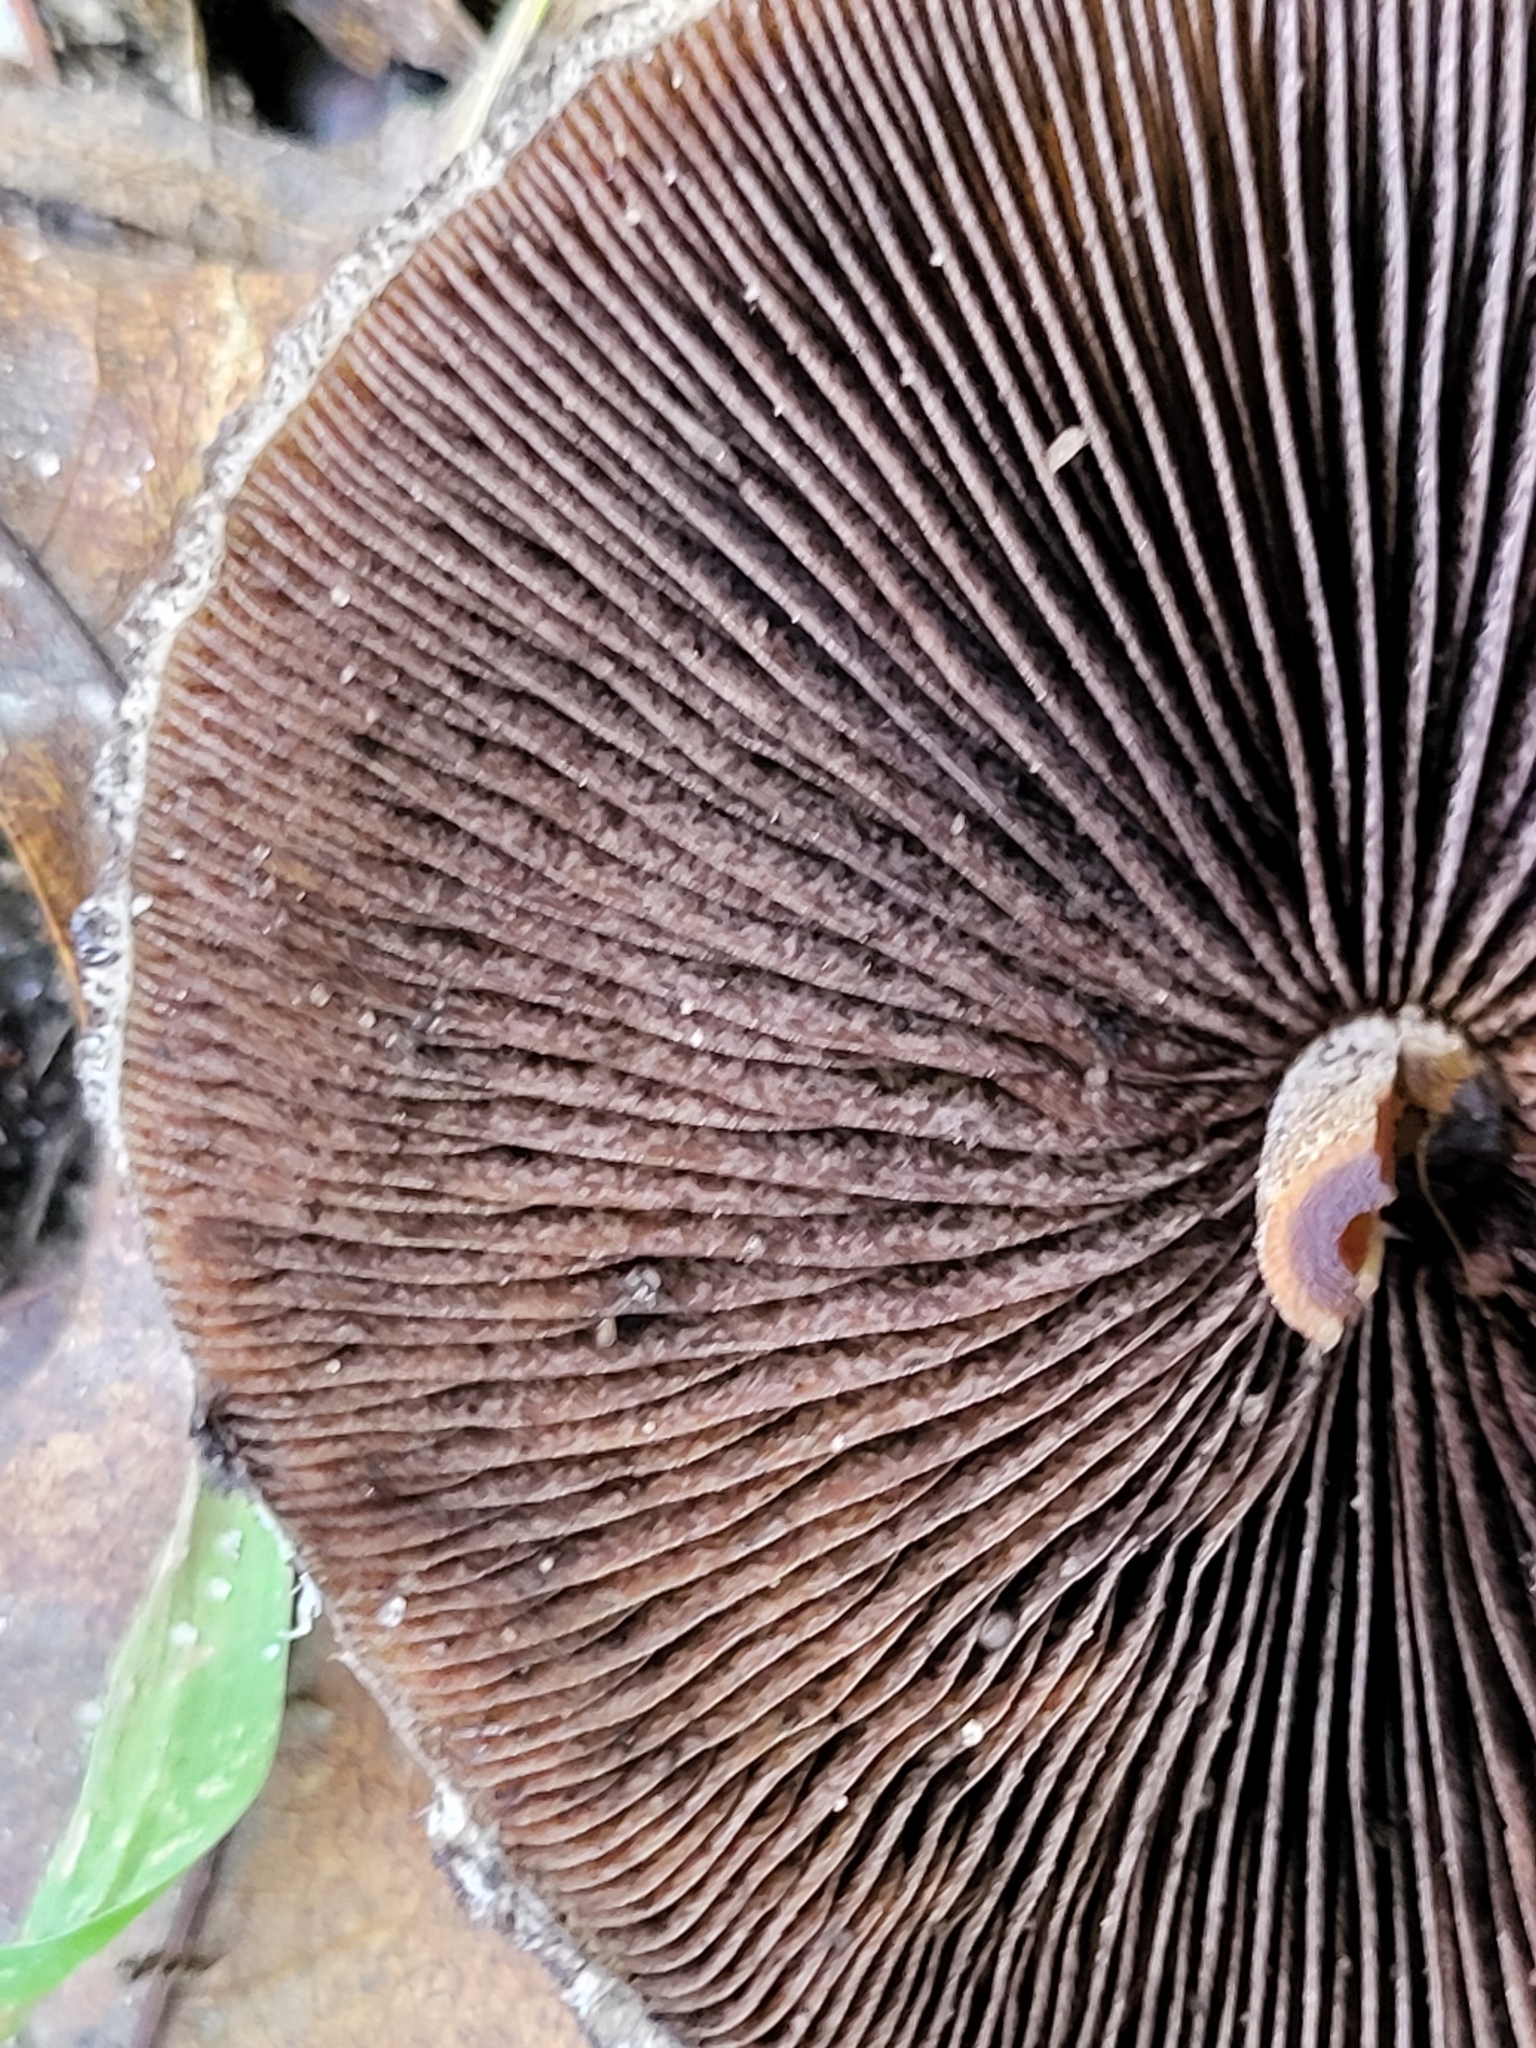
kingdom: Fungi
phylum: Basidiomycota
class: Agaricomycetes
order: Agaricales
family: Psathyrellaceae
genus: Lacrymaria
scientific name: Lacrymaria lacrymabunda
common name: Weeping widow
